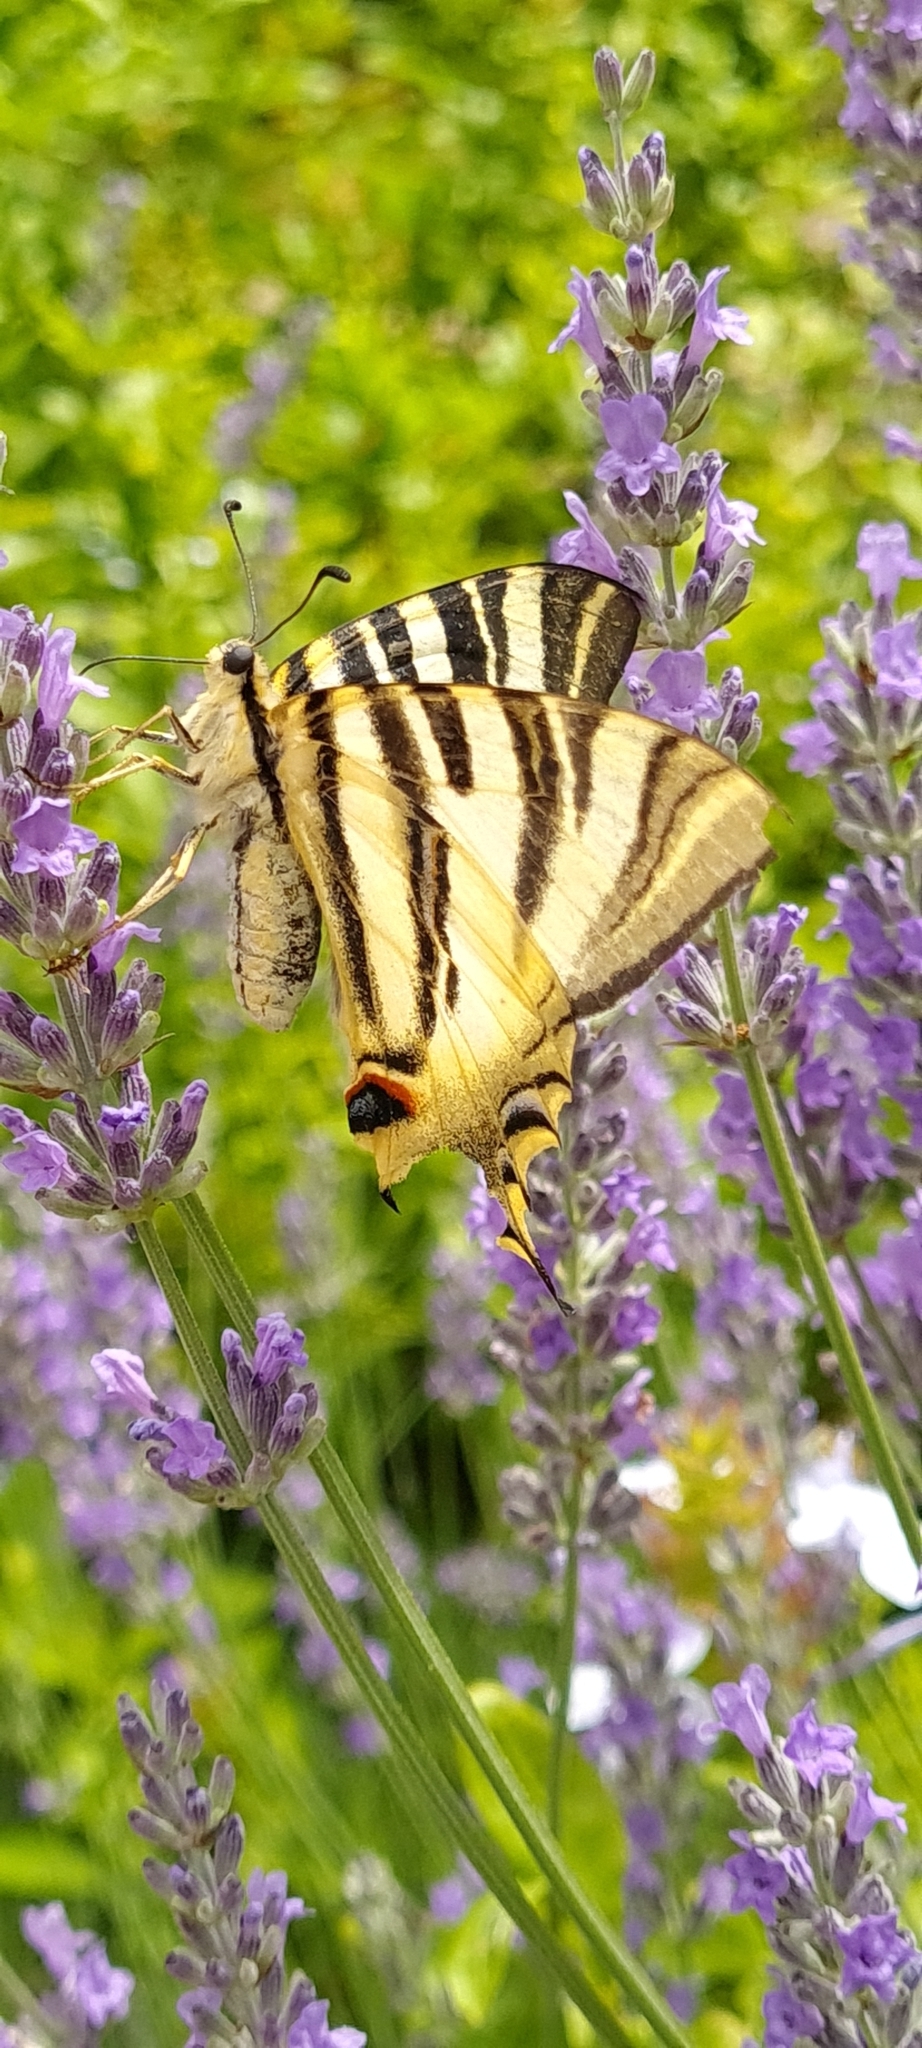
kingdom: Animalia
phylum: Arthropoda
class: Insecta
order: Lepidoptera
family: Papilionidae
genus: Iphiclides
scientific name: Iphiclides feisthamelii
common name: Iberian scarce swallowtail
